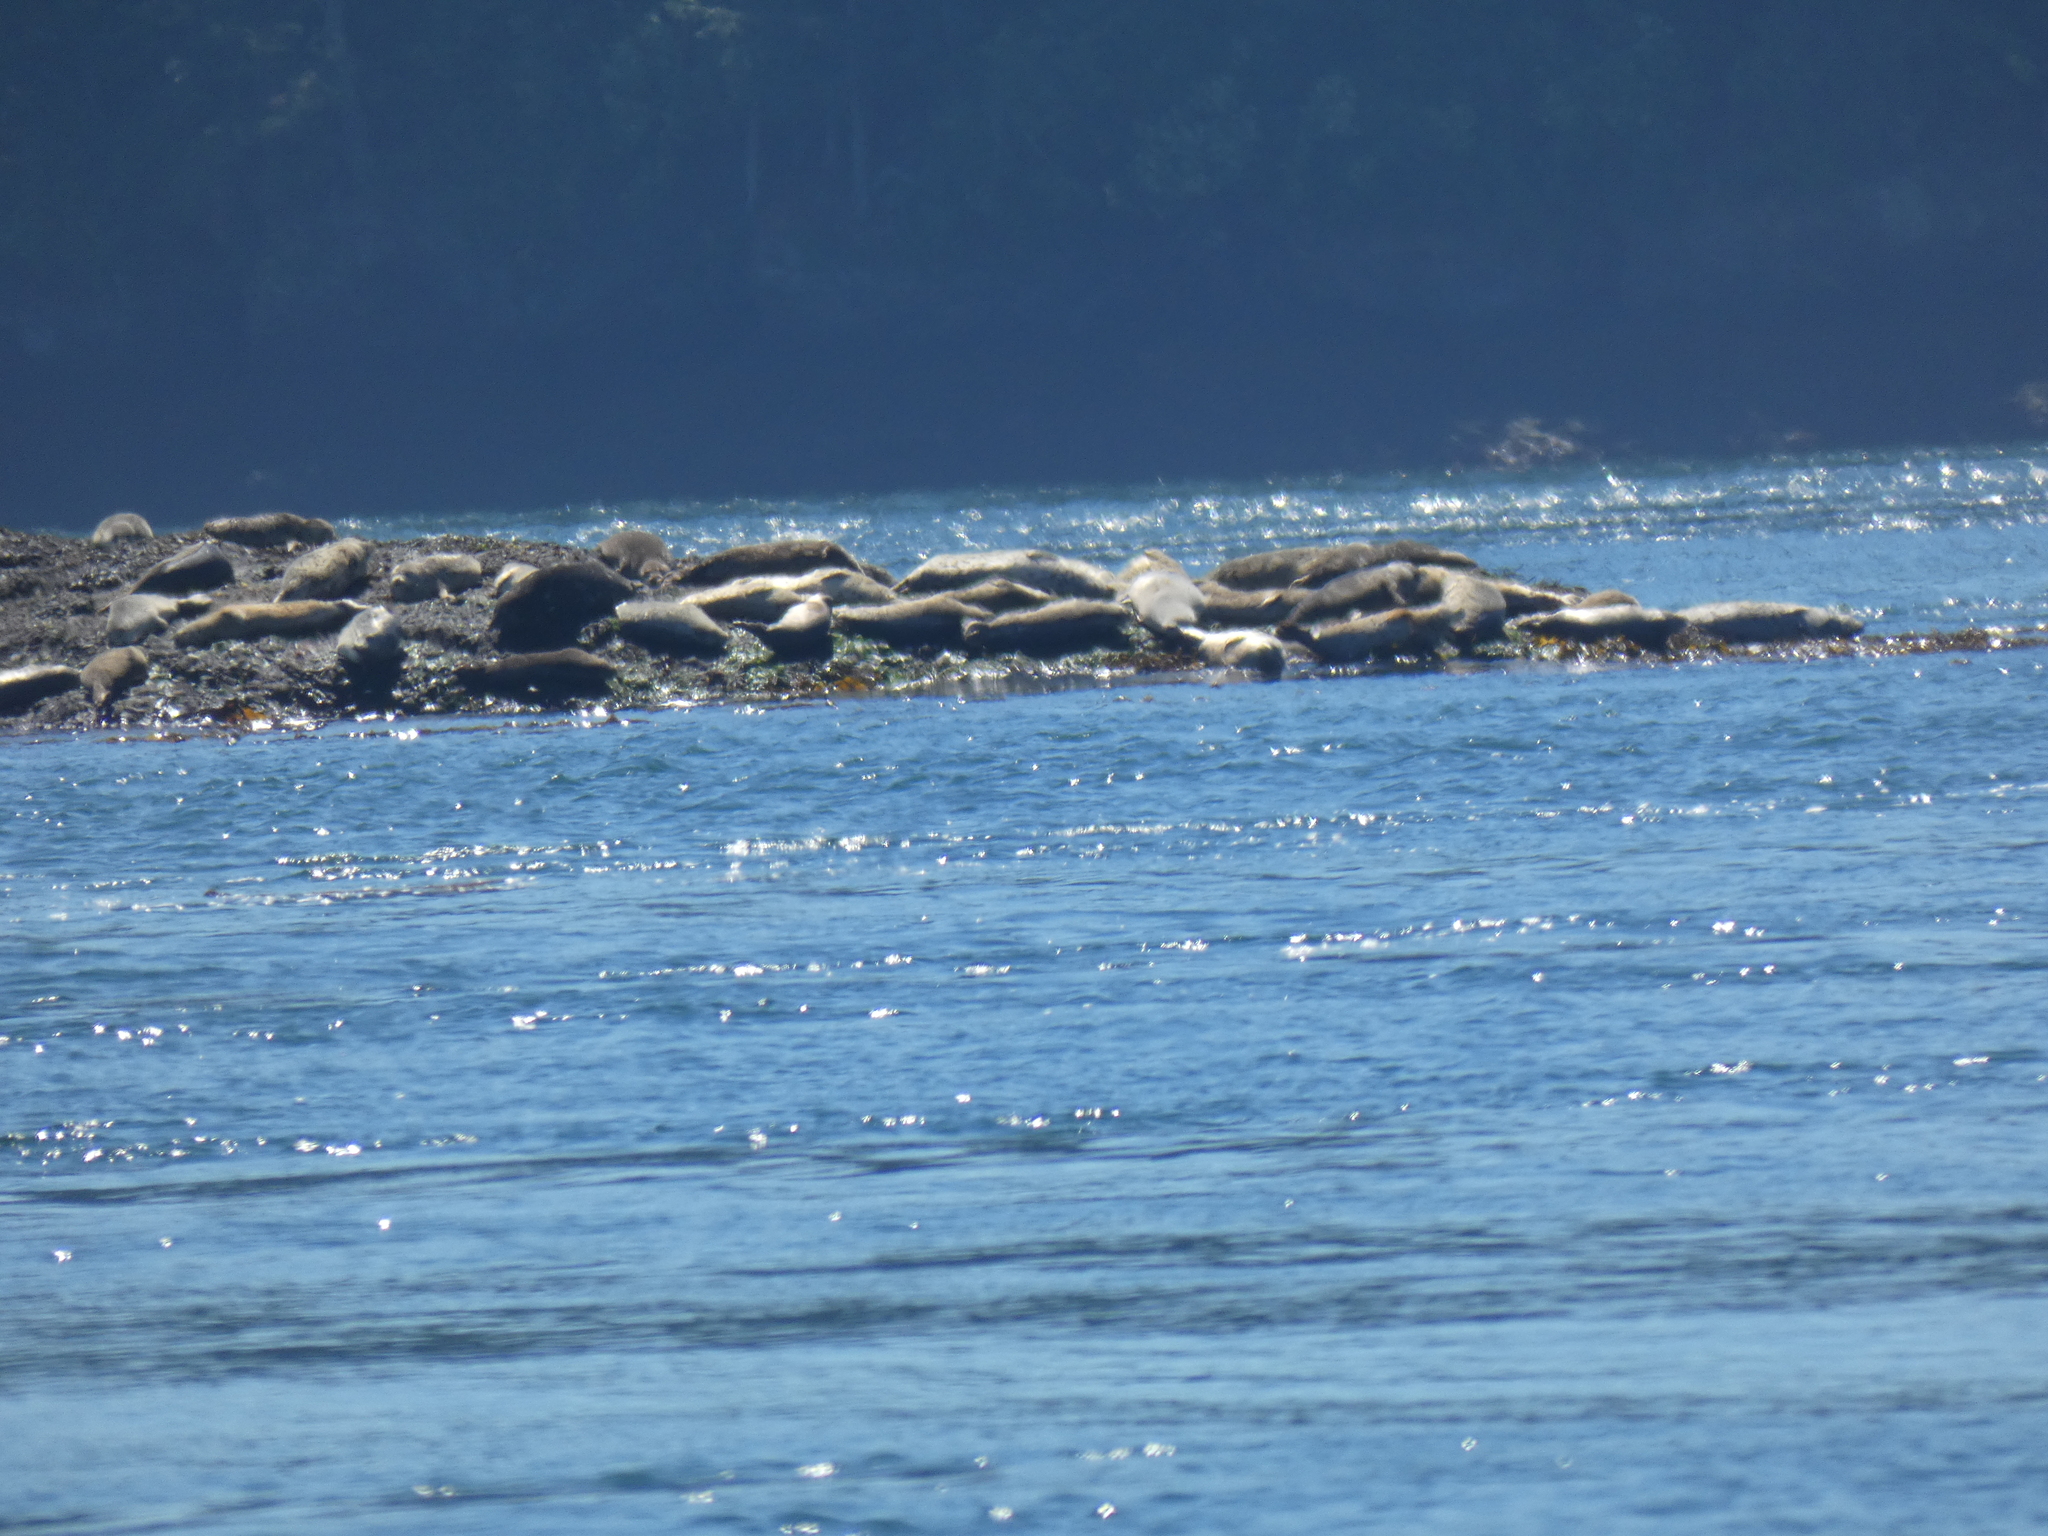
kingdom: Animalia
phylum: Chordata
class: Mammalia
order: Carnivora
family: Phocidae
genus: Phoca
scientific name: Phoca vitulina
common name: Harbor seal
